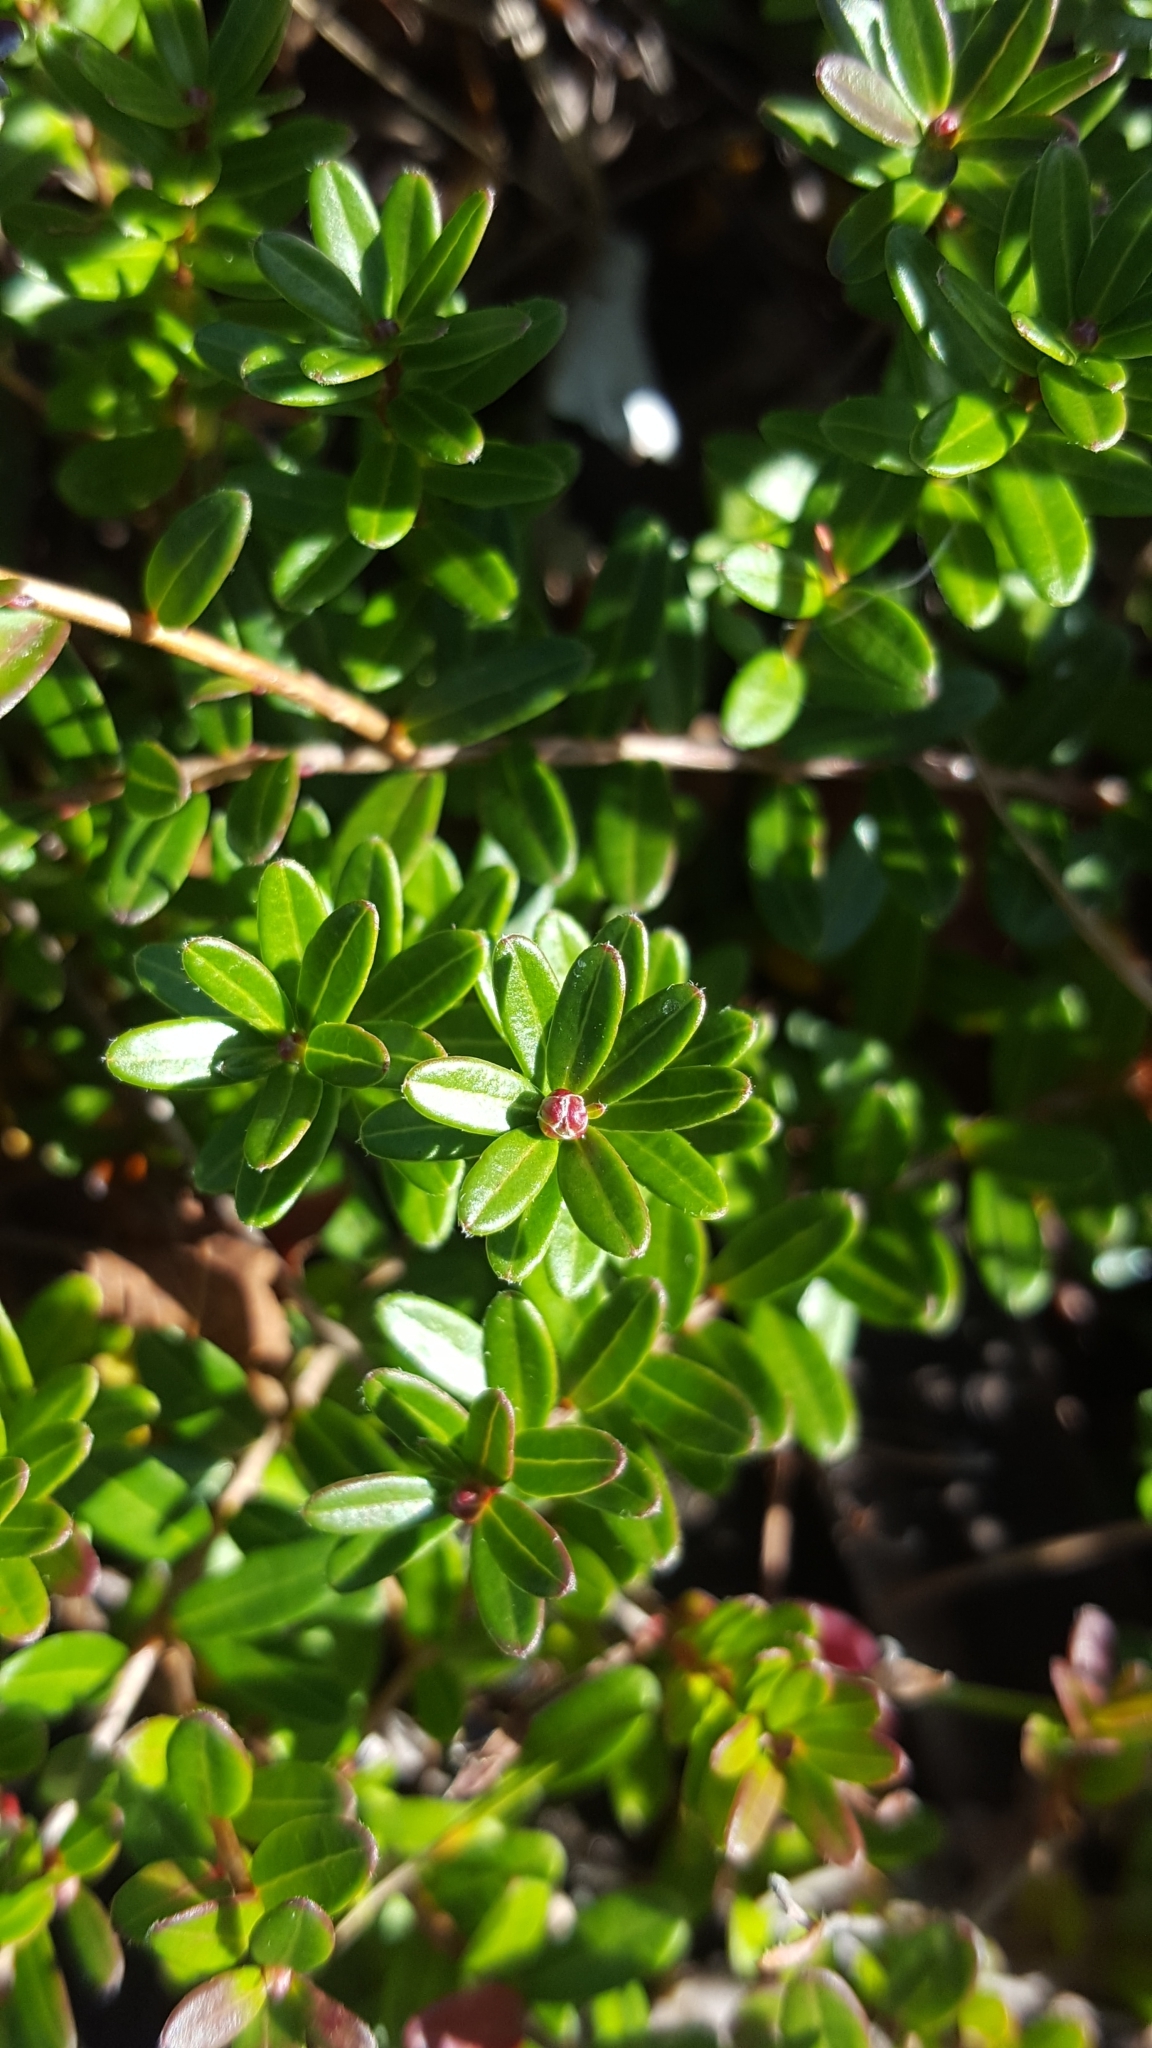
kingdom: Plantae
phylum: Tracheophyta
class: Magnoliopsida
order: Ericales
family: Ericaceae
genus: Vaccinium
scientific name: Vaccinium macrocarpon
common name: American cranberry
